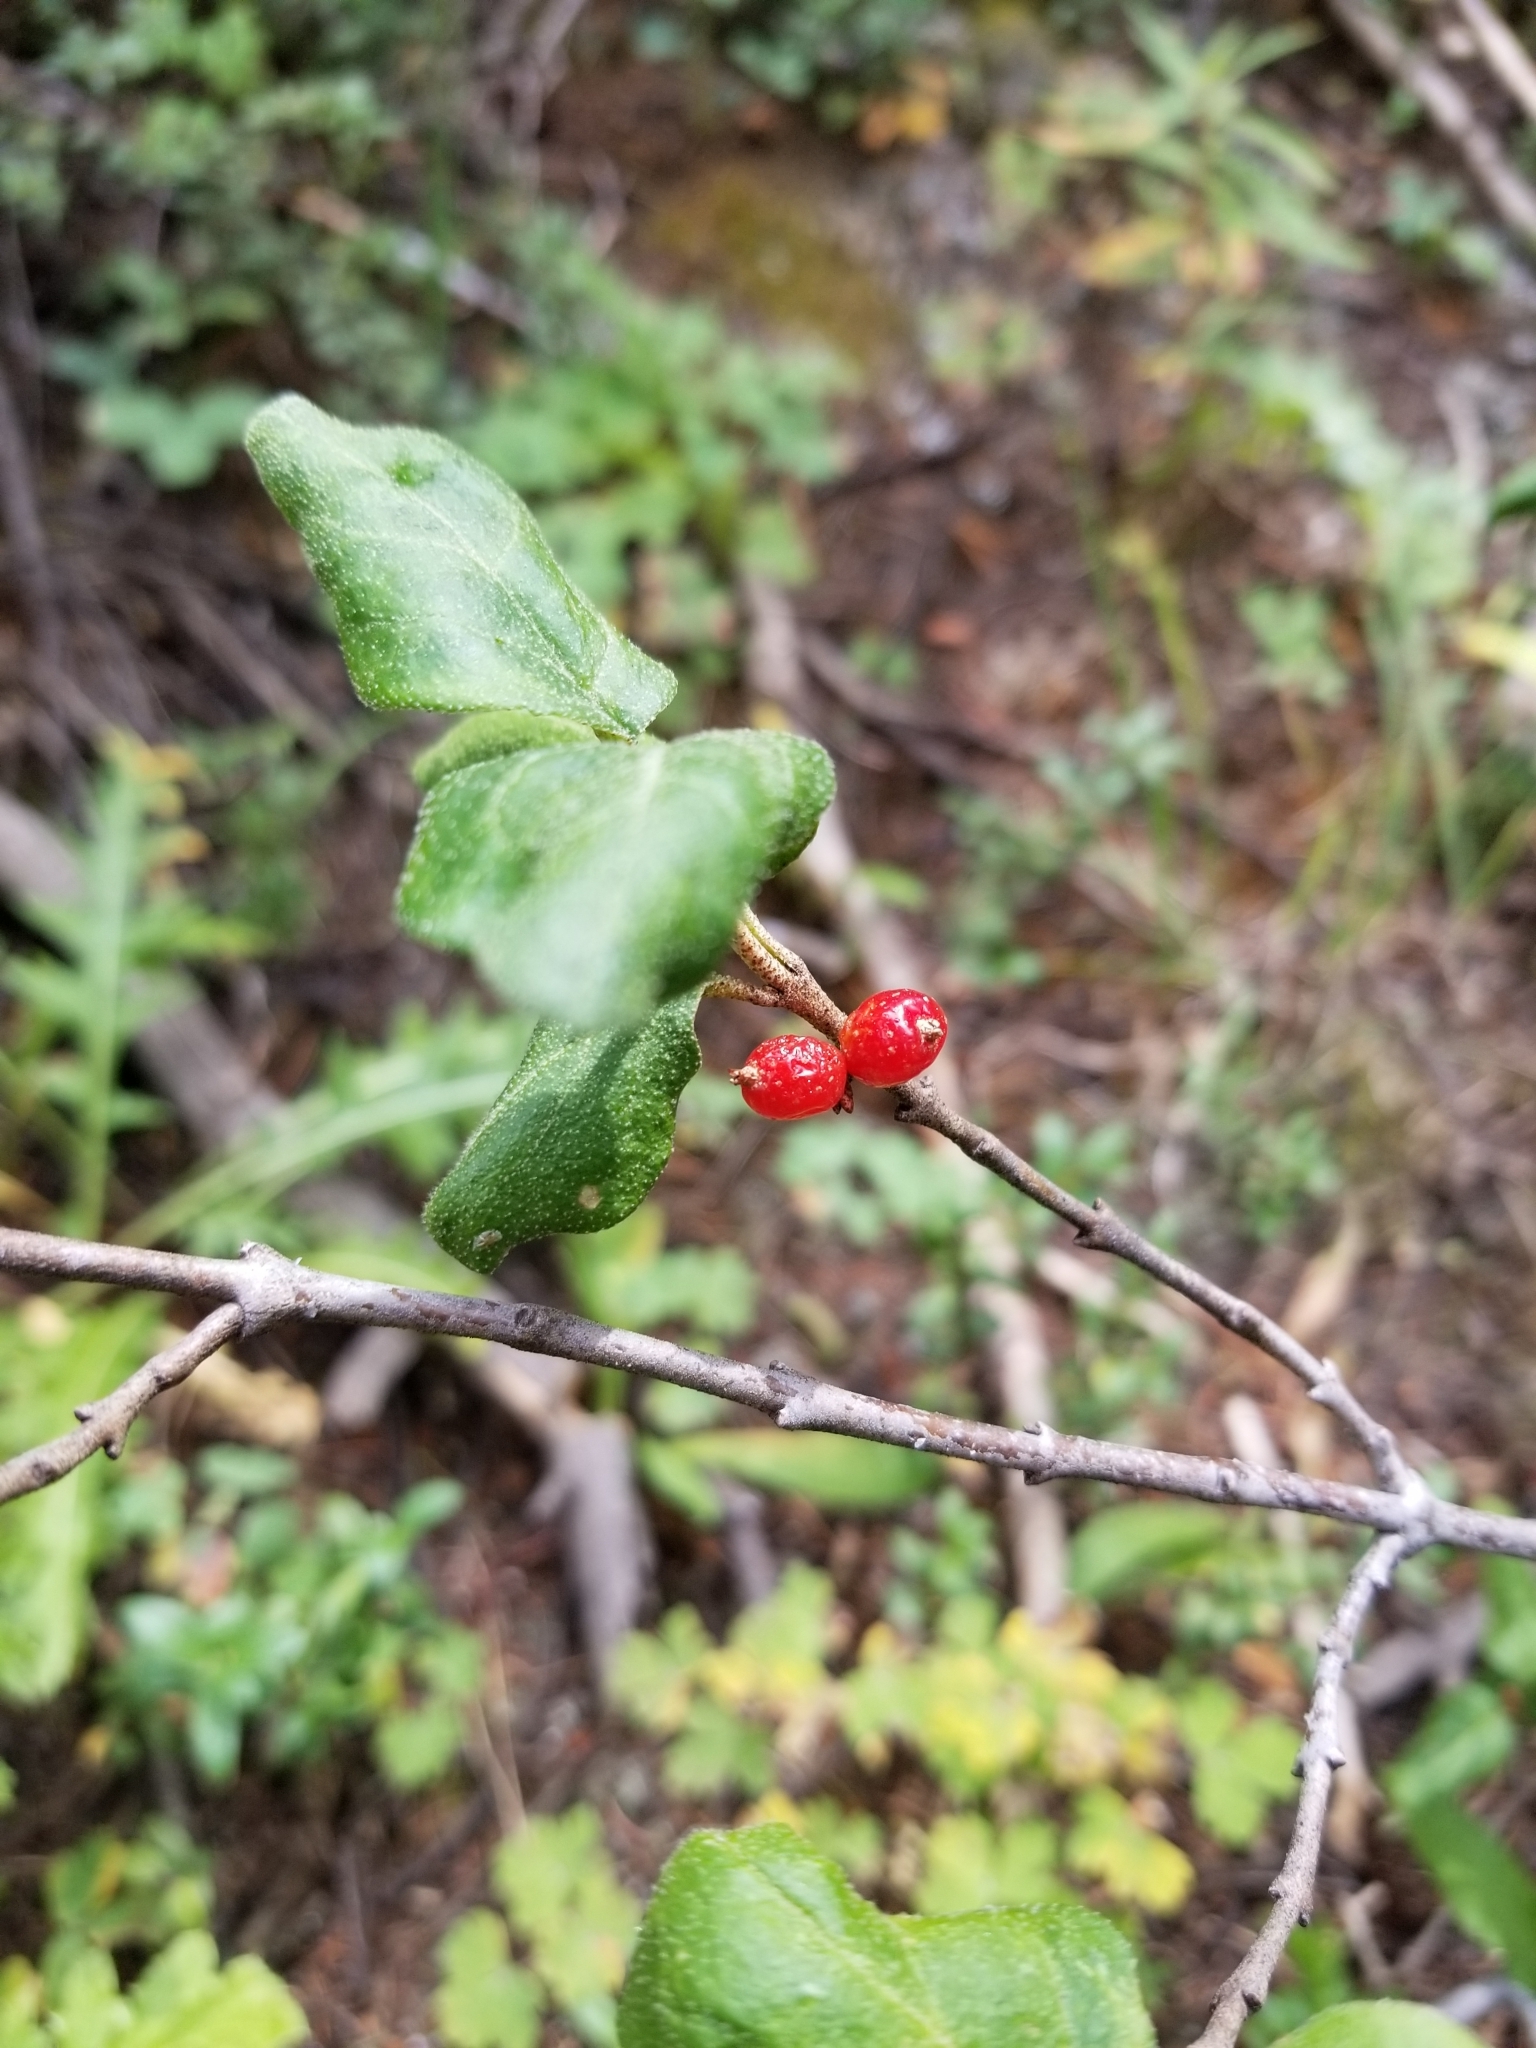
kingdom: Plantae
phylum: Tracheophyta
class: Magnoliopsida
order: Rosales
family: Elaeagnaceae
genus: Shepherdia
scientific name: Shepherdia canadensis
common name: Soapberry
